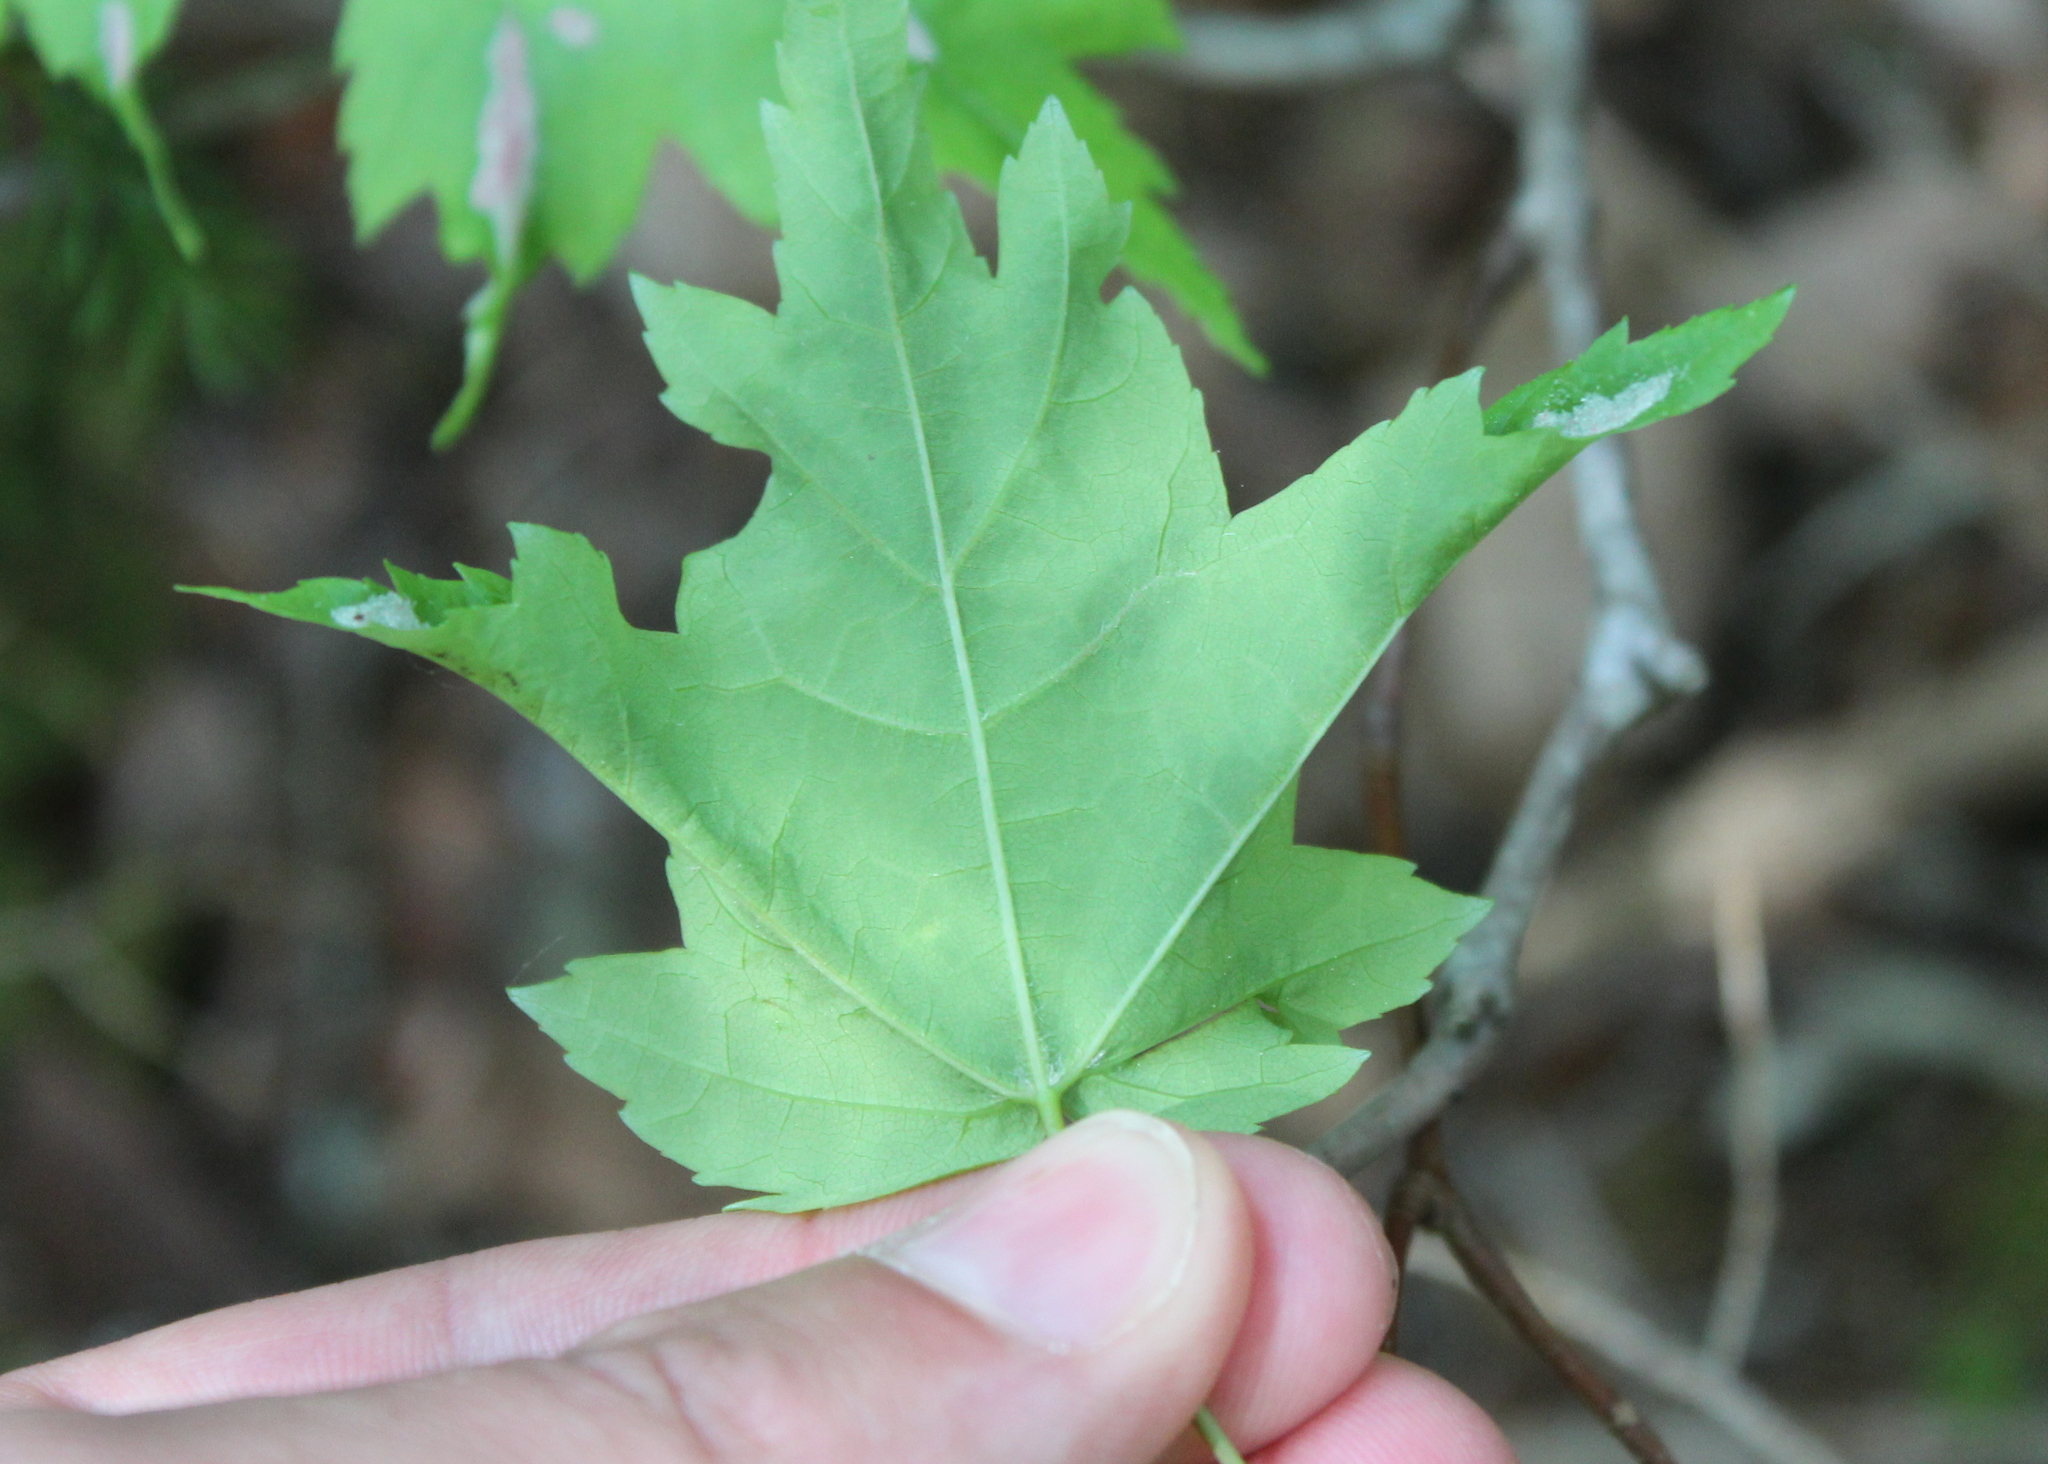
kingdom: Animalia
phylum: Arthropoda
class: Arachnida
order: Trombidiformes
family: Eriophyidae
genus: Aculus
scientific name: Aculus
